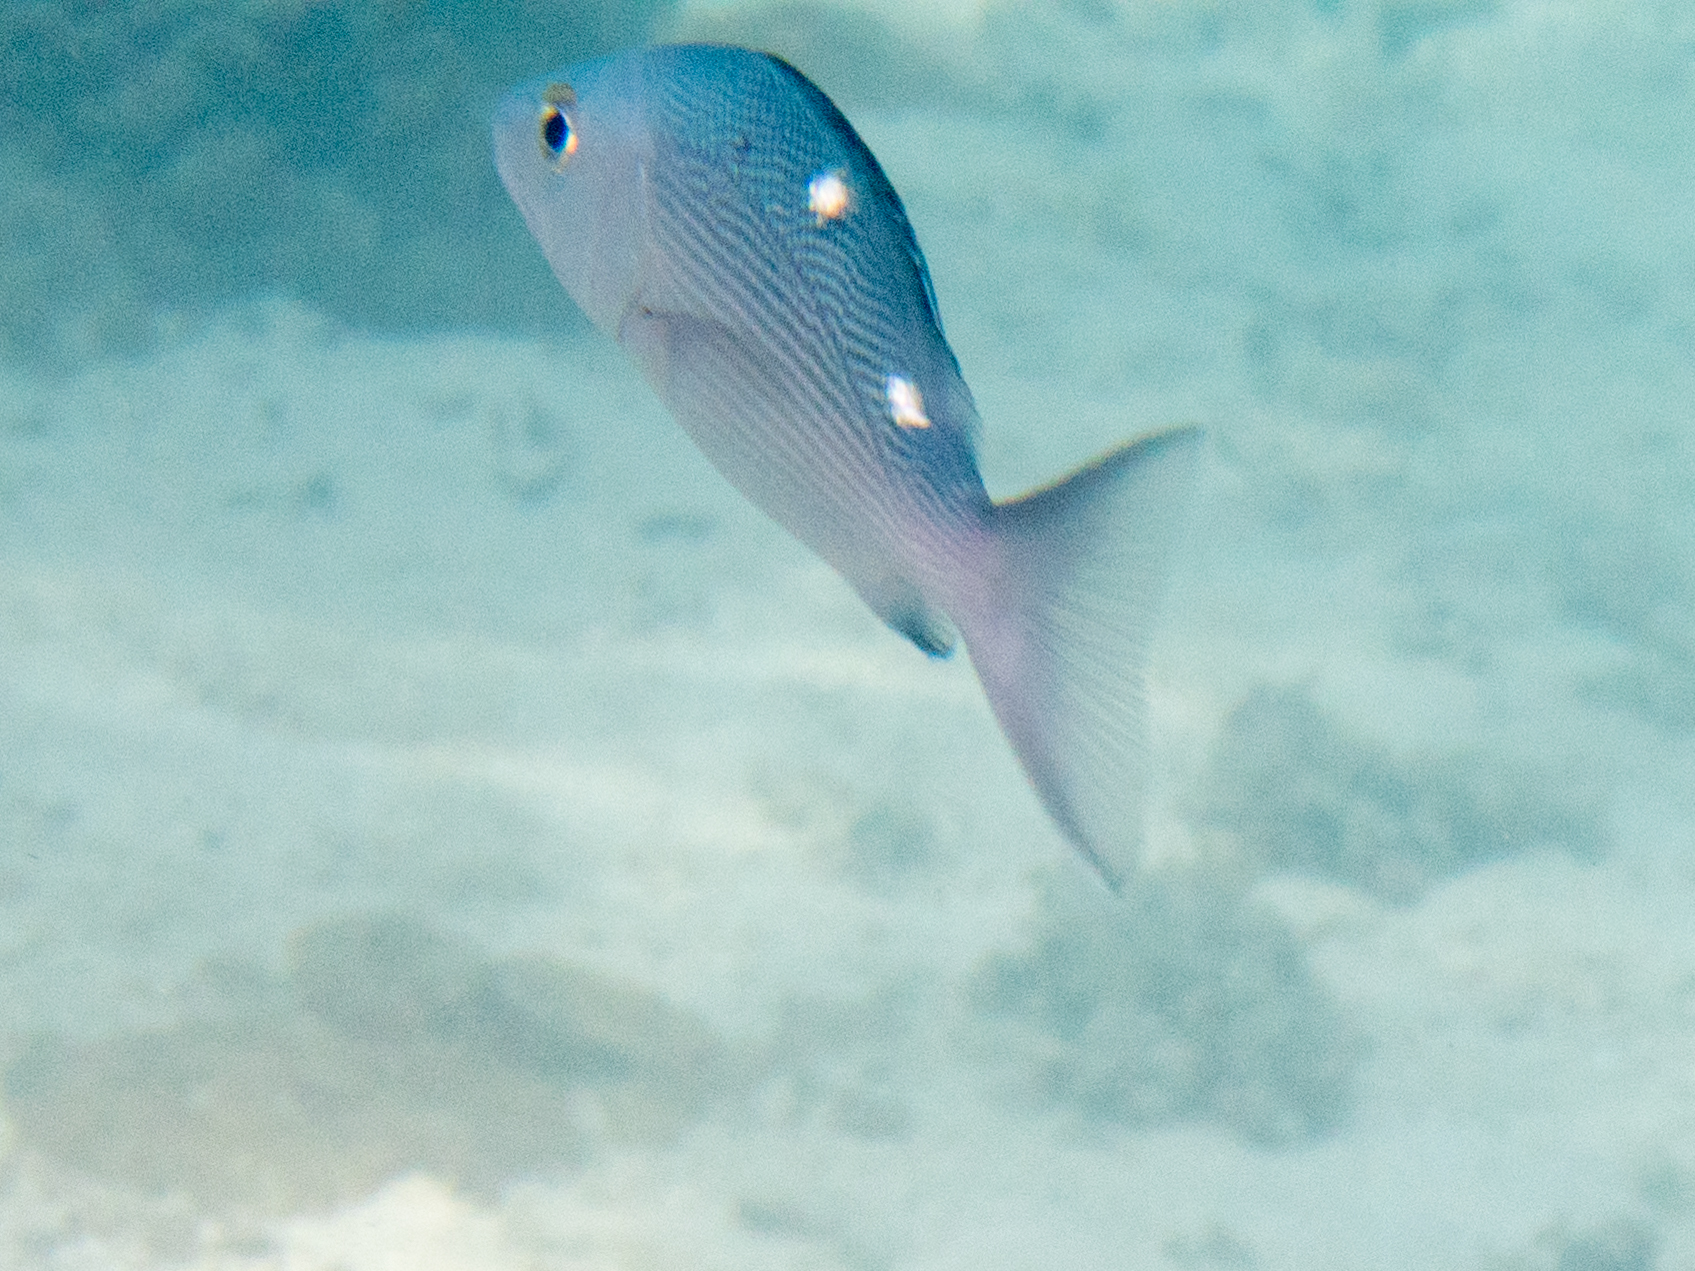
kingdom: Animalia
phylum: Chordata
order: Perciformes
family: Lutjanidae
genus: Lutjanus
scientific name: Lutjanus bohar
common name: Red bass
